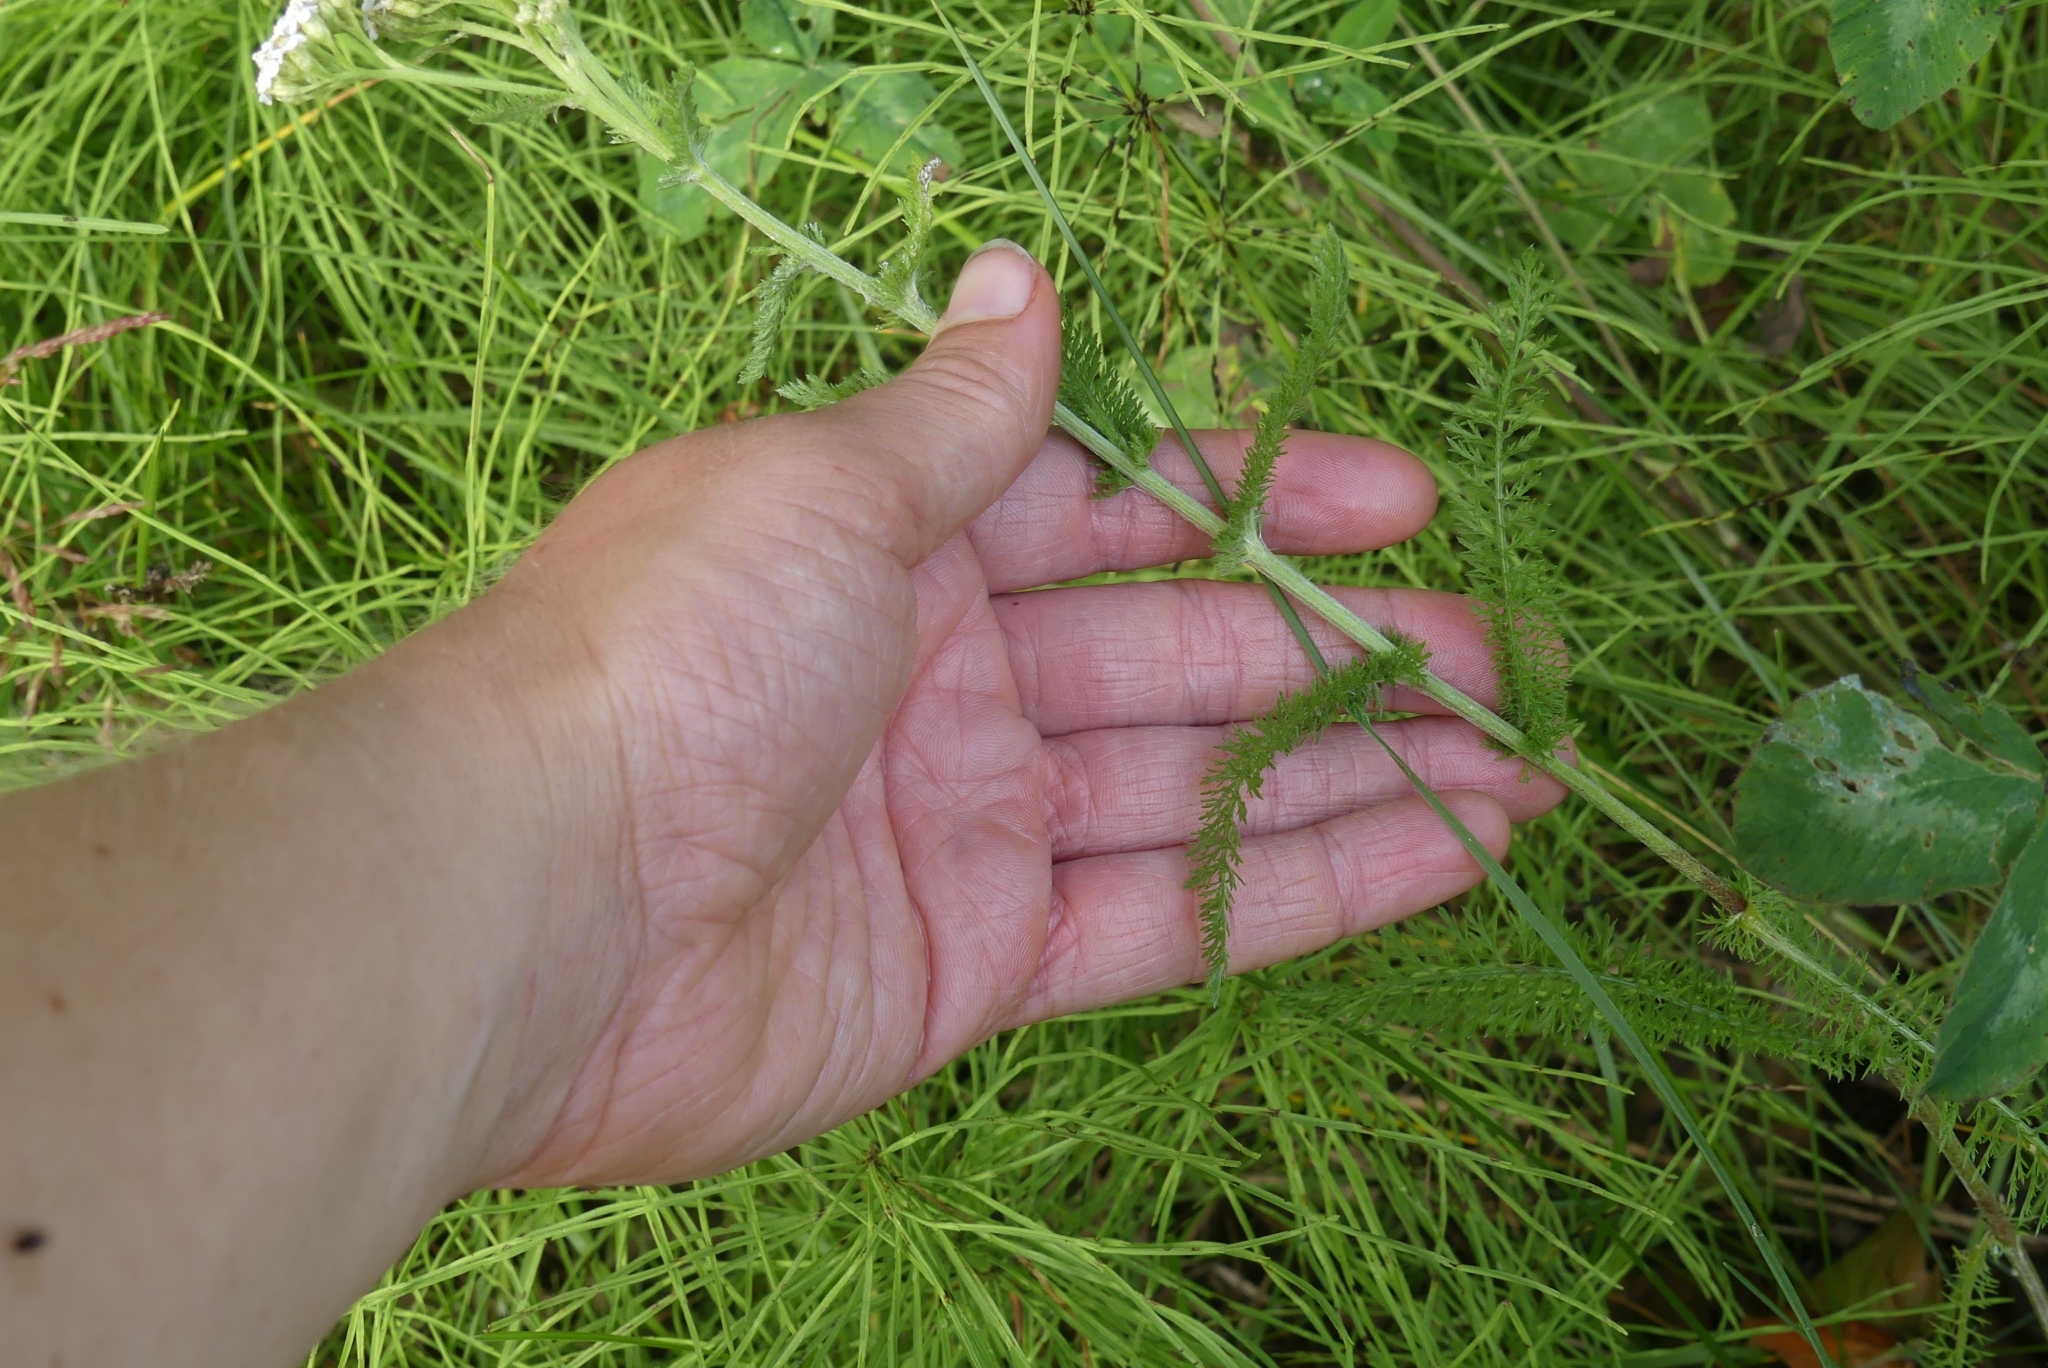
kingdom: Plantae
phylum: Tracheophyta
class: Magnoliopsida
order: Asterales
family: Asteraceae
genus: Achillea
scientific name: Achillea millefolium
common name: Yarrow
